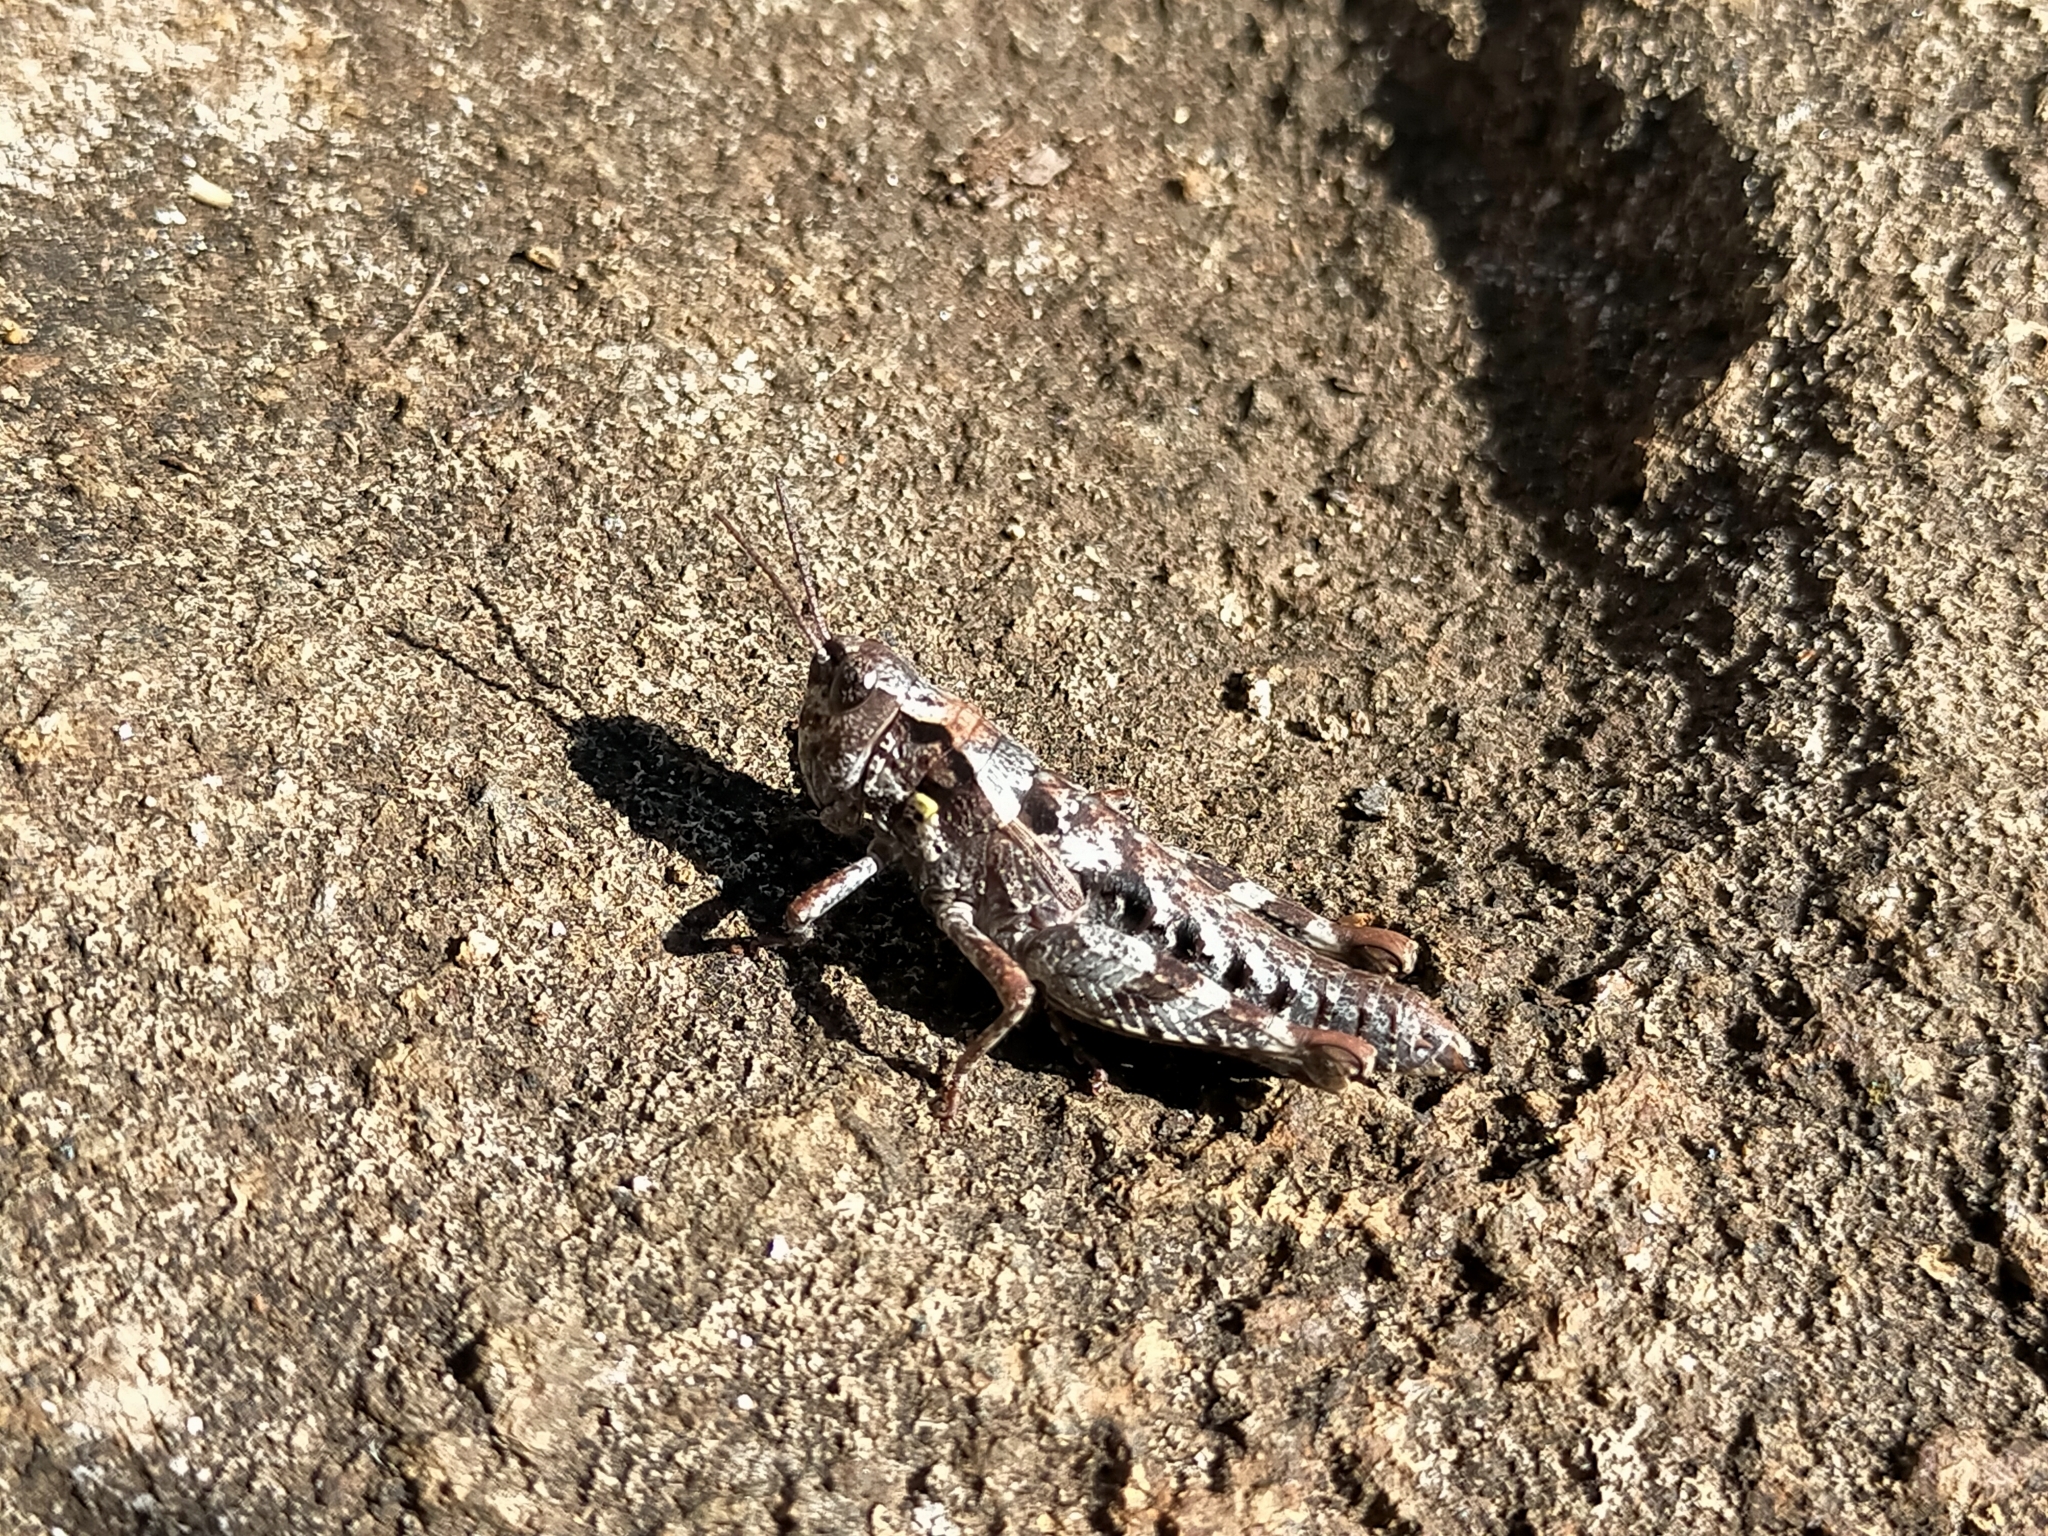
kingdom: Animalia
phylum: Arthropoda
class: Insecta
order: Orthoptera
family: Acrididae
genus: Tasmaniacris
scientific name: Tasmaniacris tasmaniensis
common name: Tasmanian grasshopper
